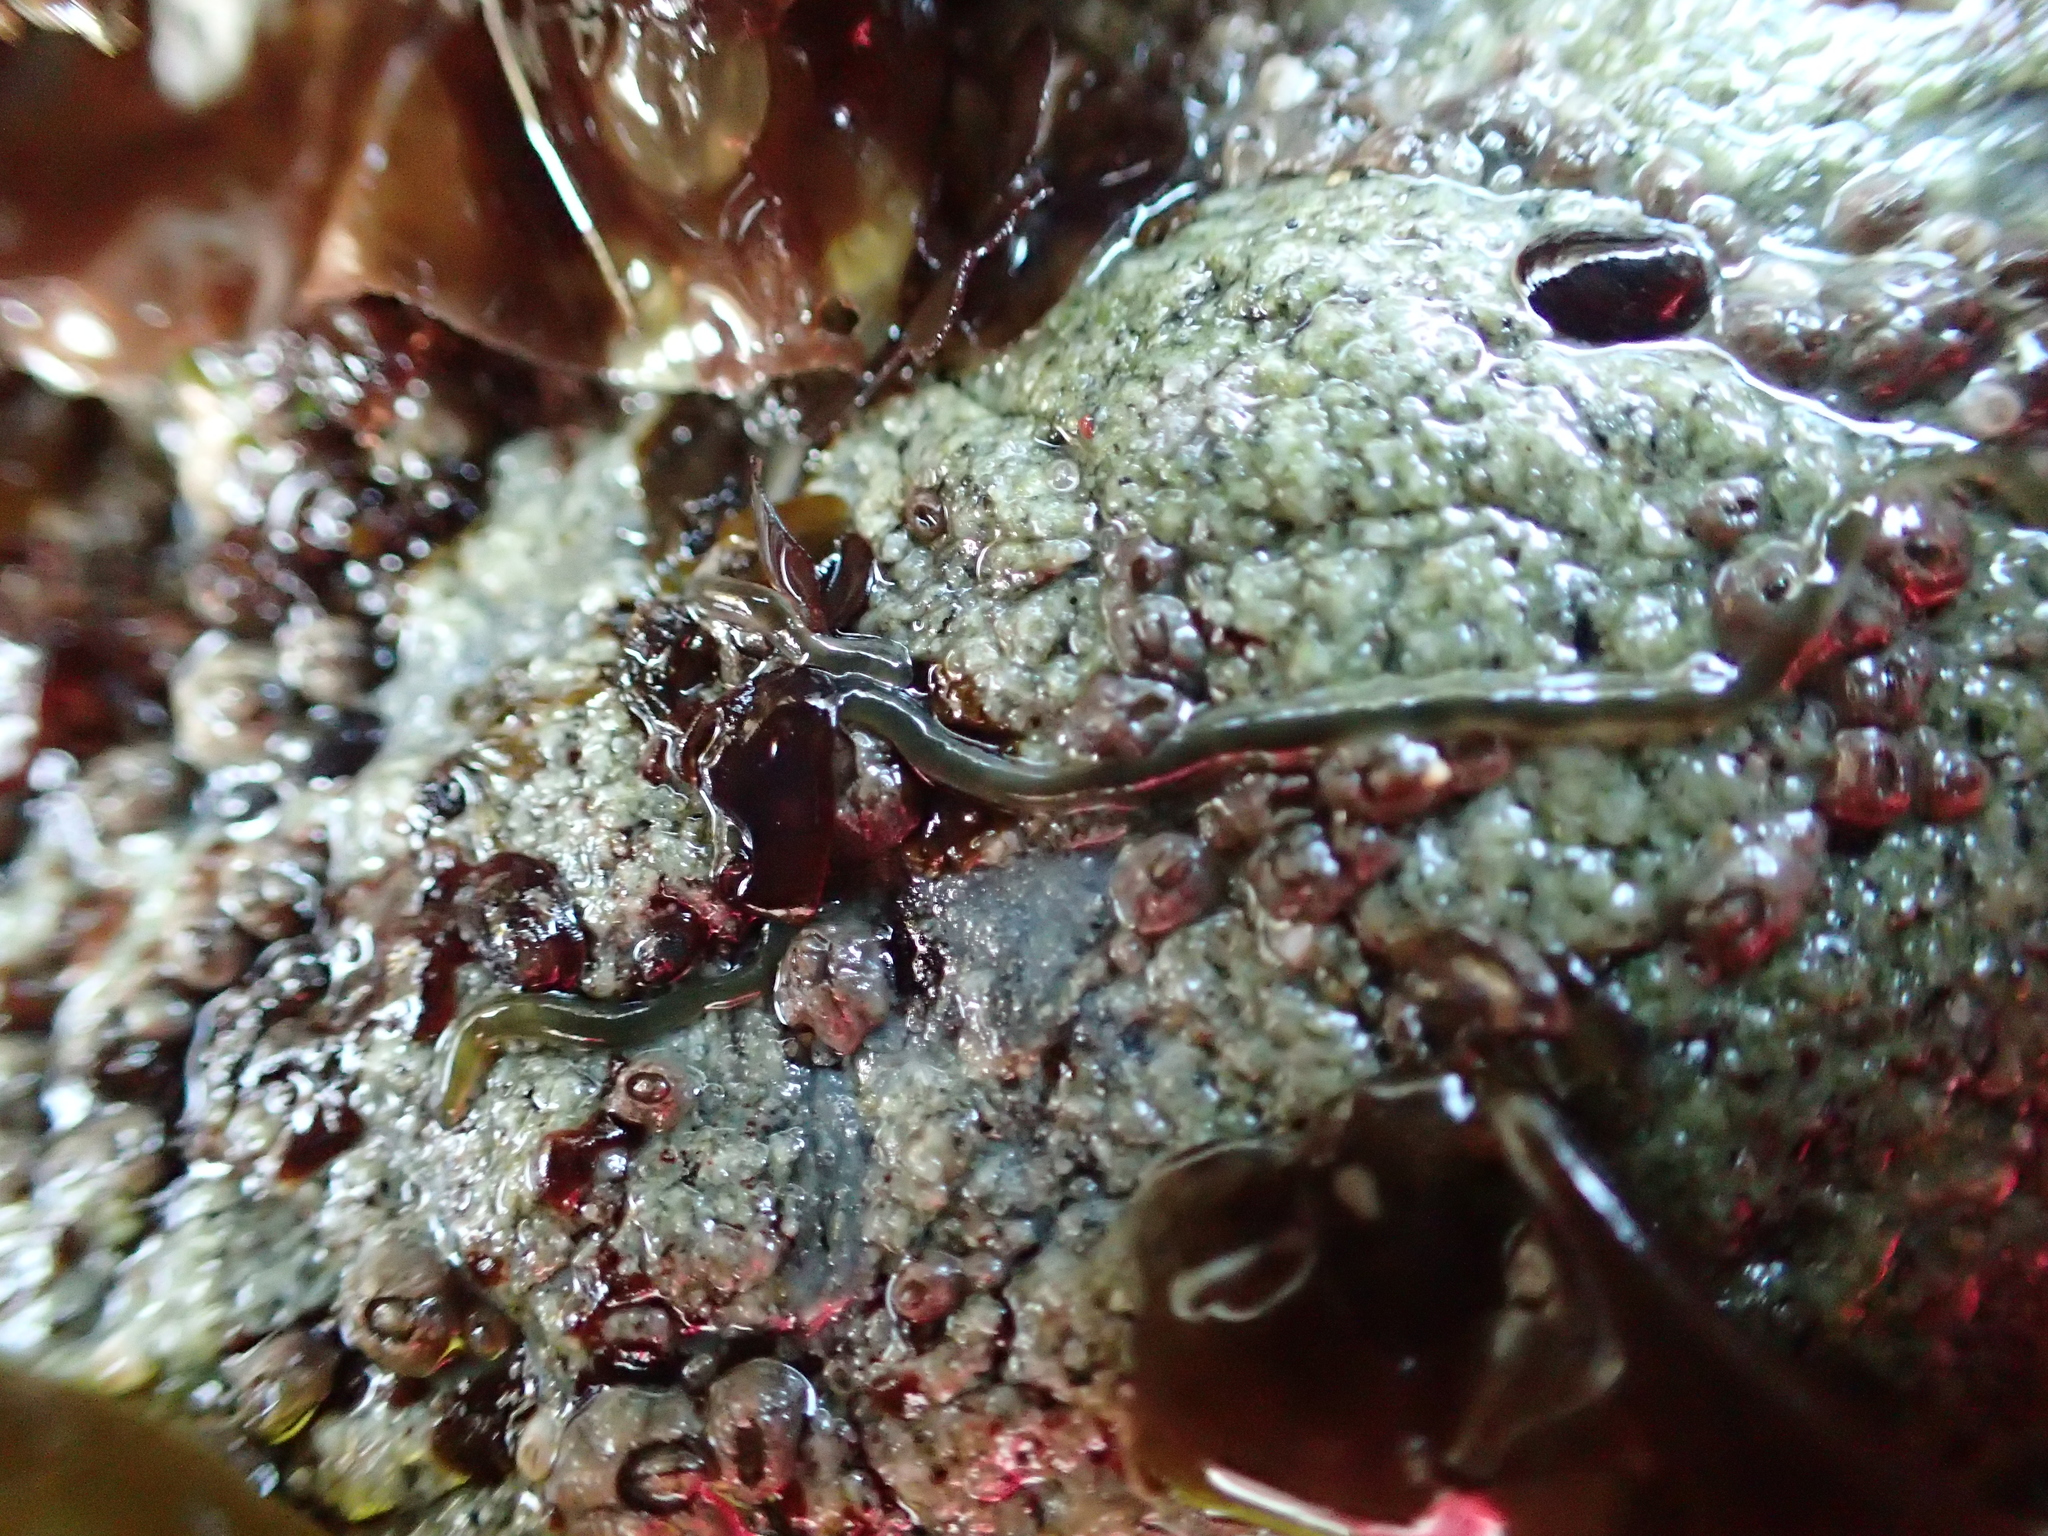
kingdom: Animalia
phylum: Nemertea
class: Hoplonemertea
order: Monostilifera
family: Emplectonematidae
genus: Emplectonema
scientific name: Emplectonema gracile
